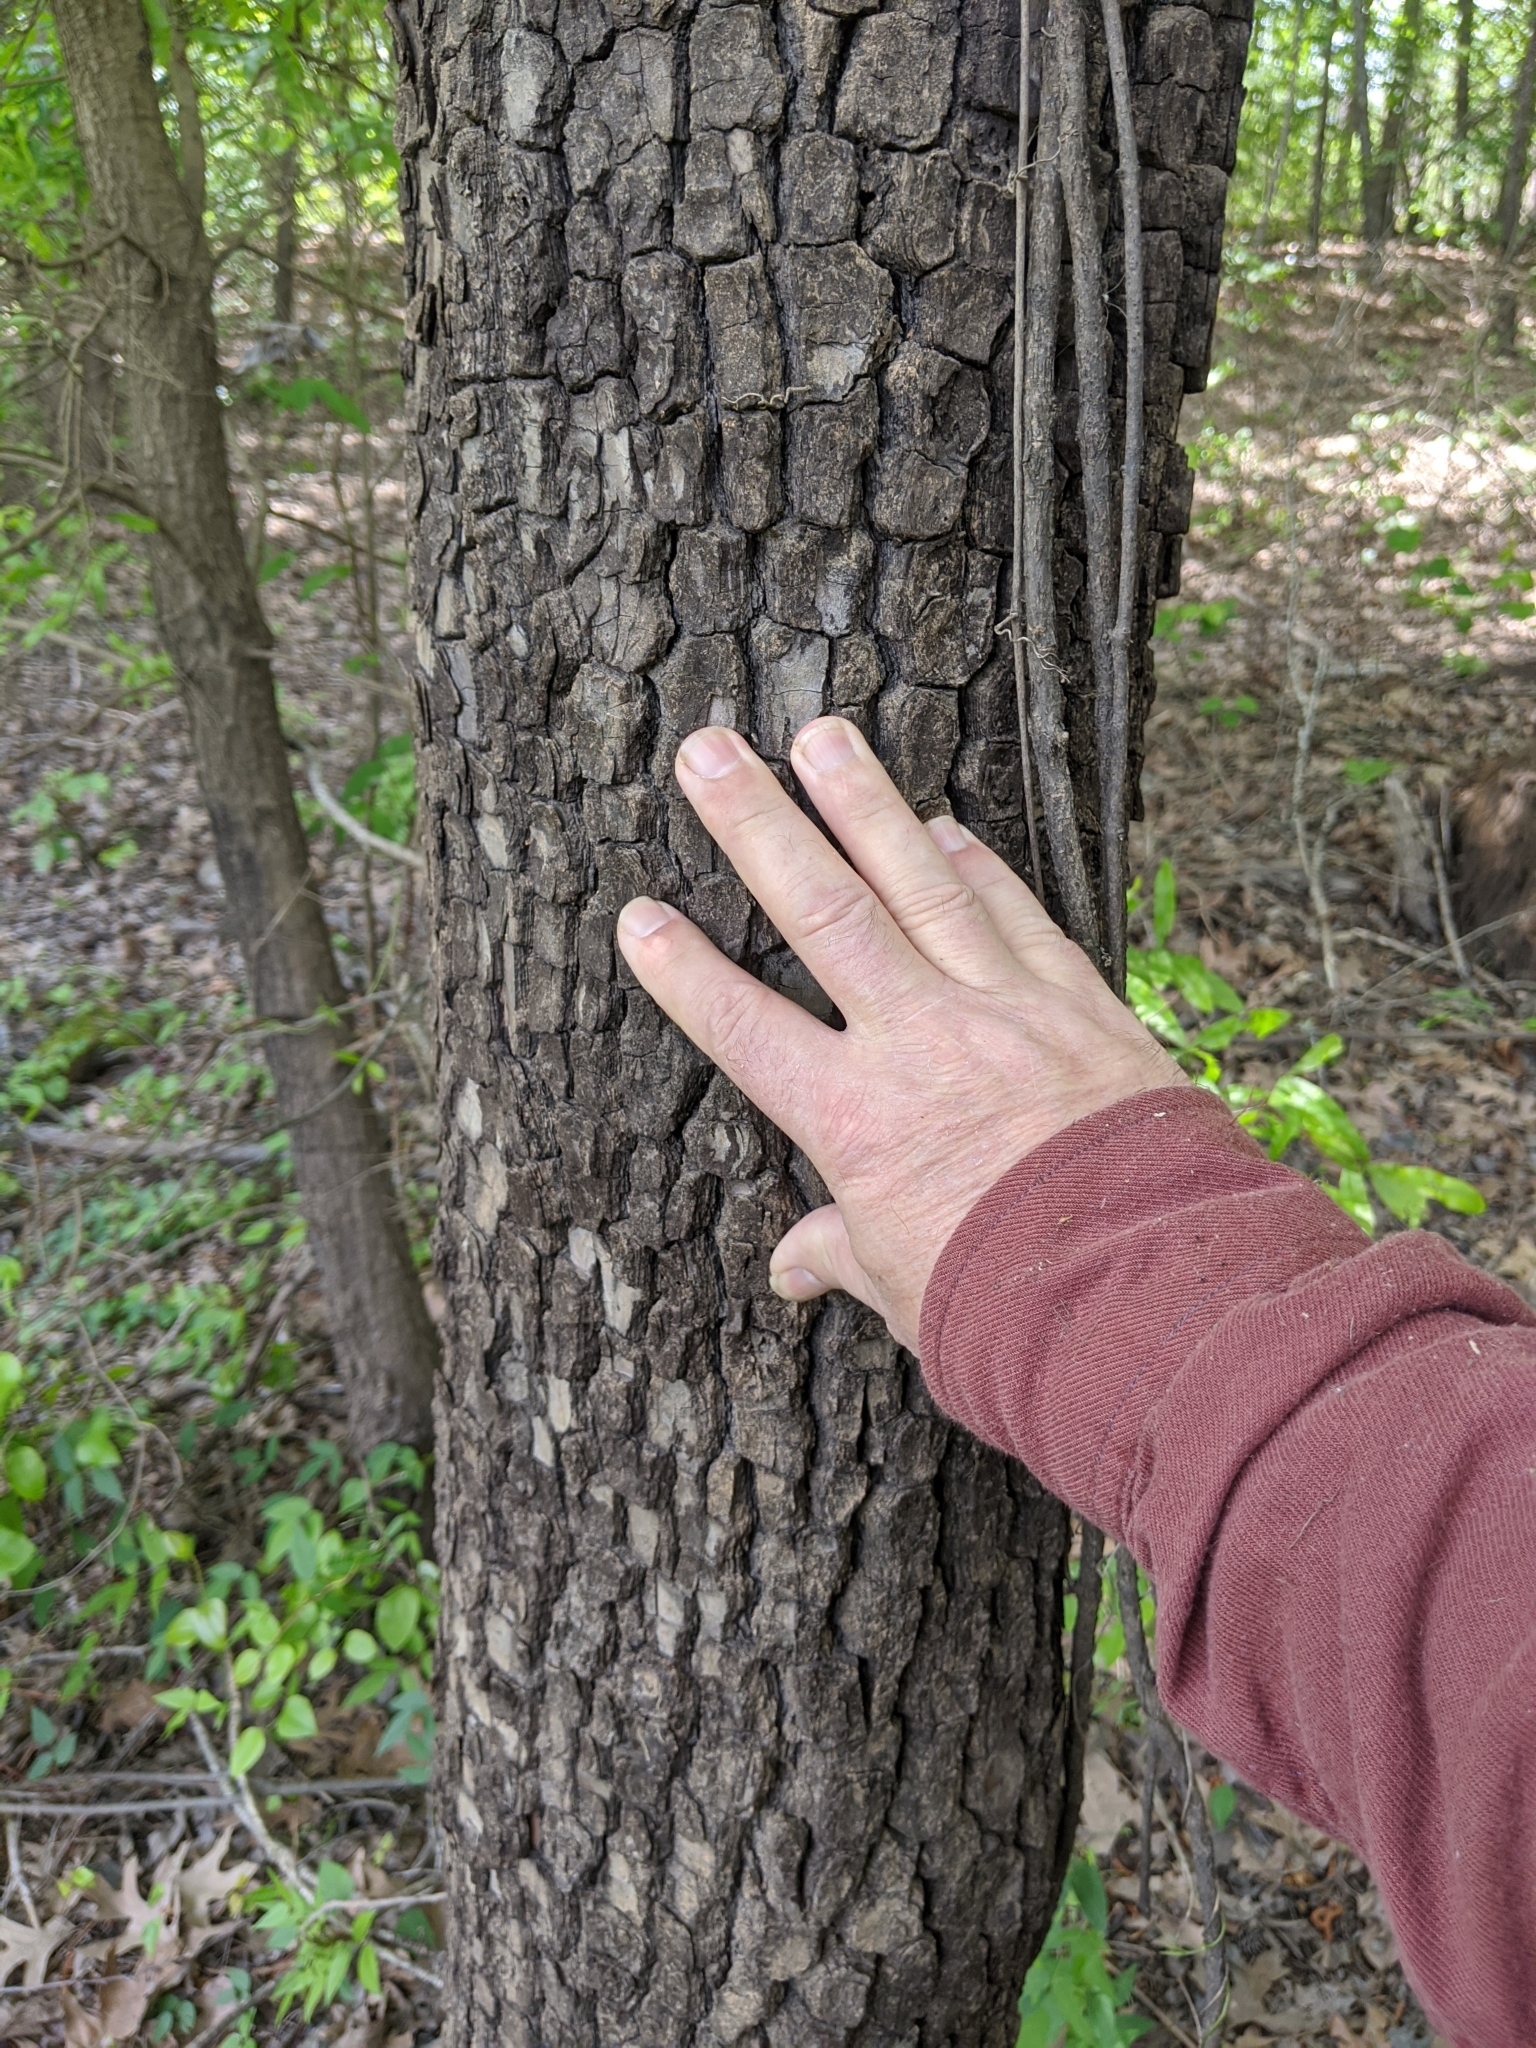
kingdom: Plantae
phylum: Tracheophyta
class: Magnoliopsida
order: Ericales
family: Ebenaceae
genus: Diospyros
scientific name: Diospyros virginiana
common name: Persimmon
